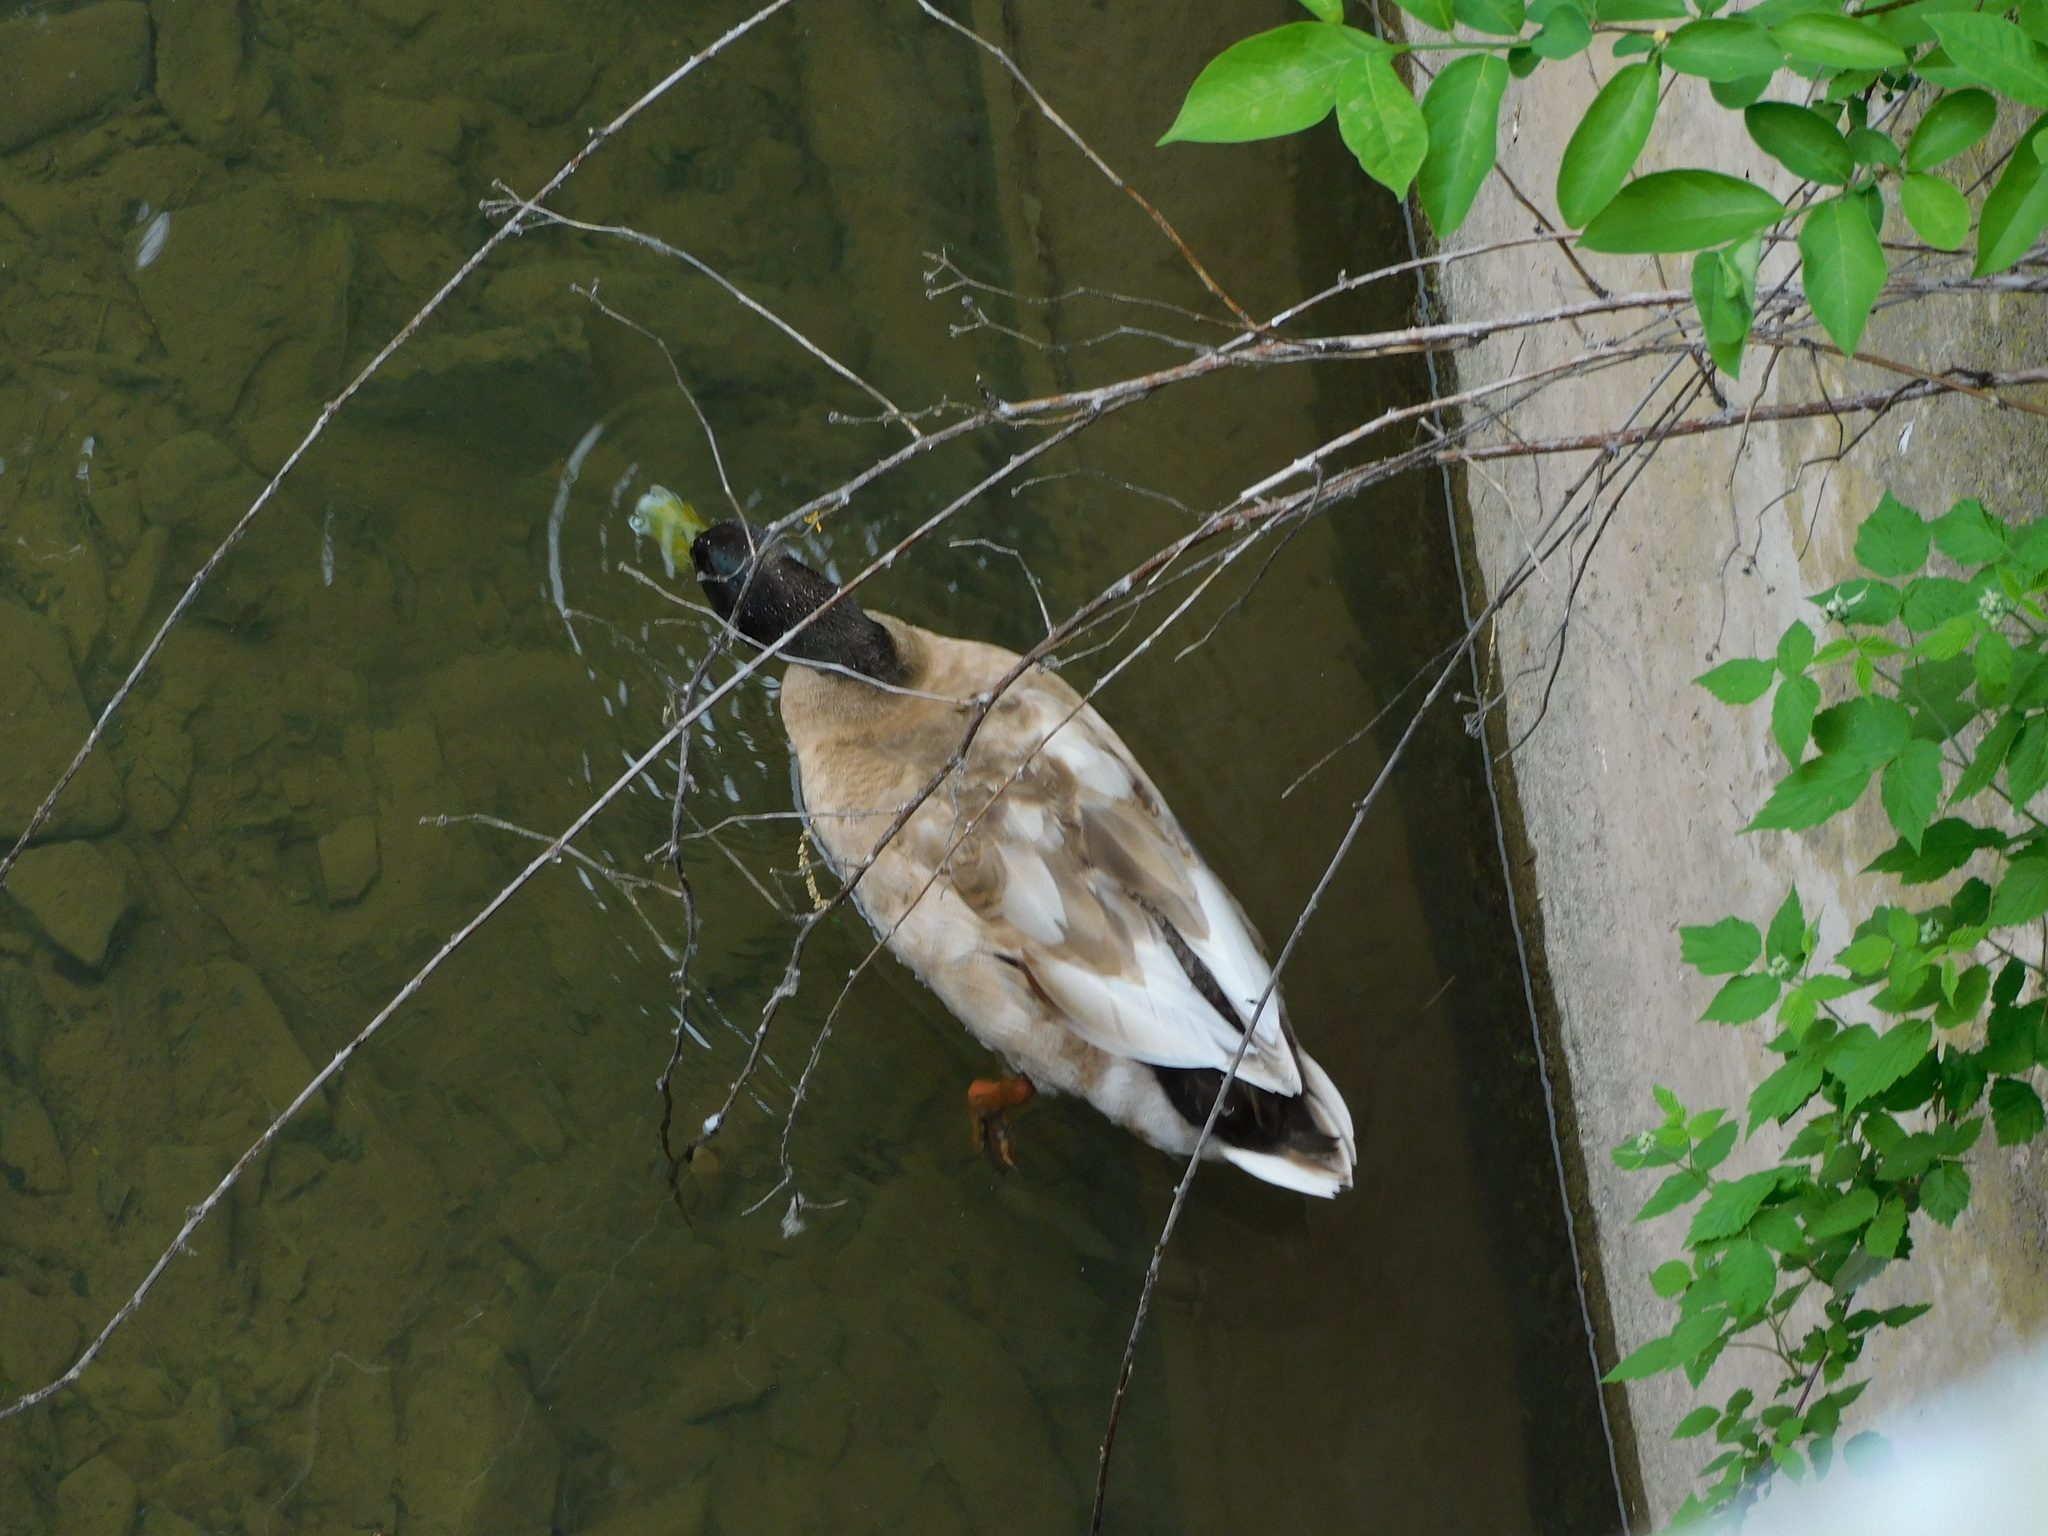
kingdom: Animalia
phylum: Chordata
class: Aves
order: Anseriformes
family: Anatidae
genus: Anas
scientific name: Anas platyrhynchos
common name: Mallard
